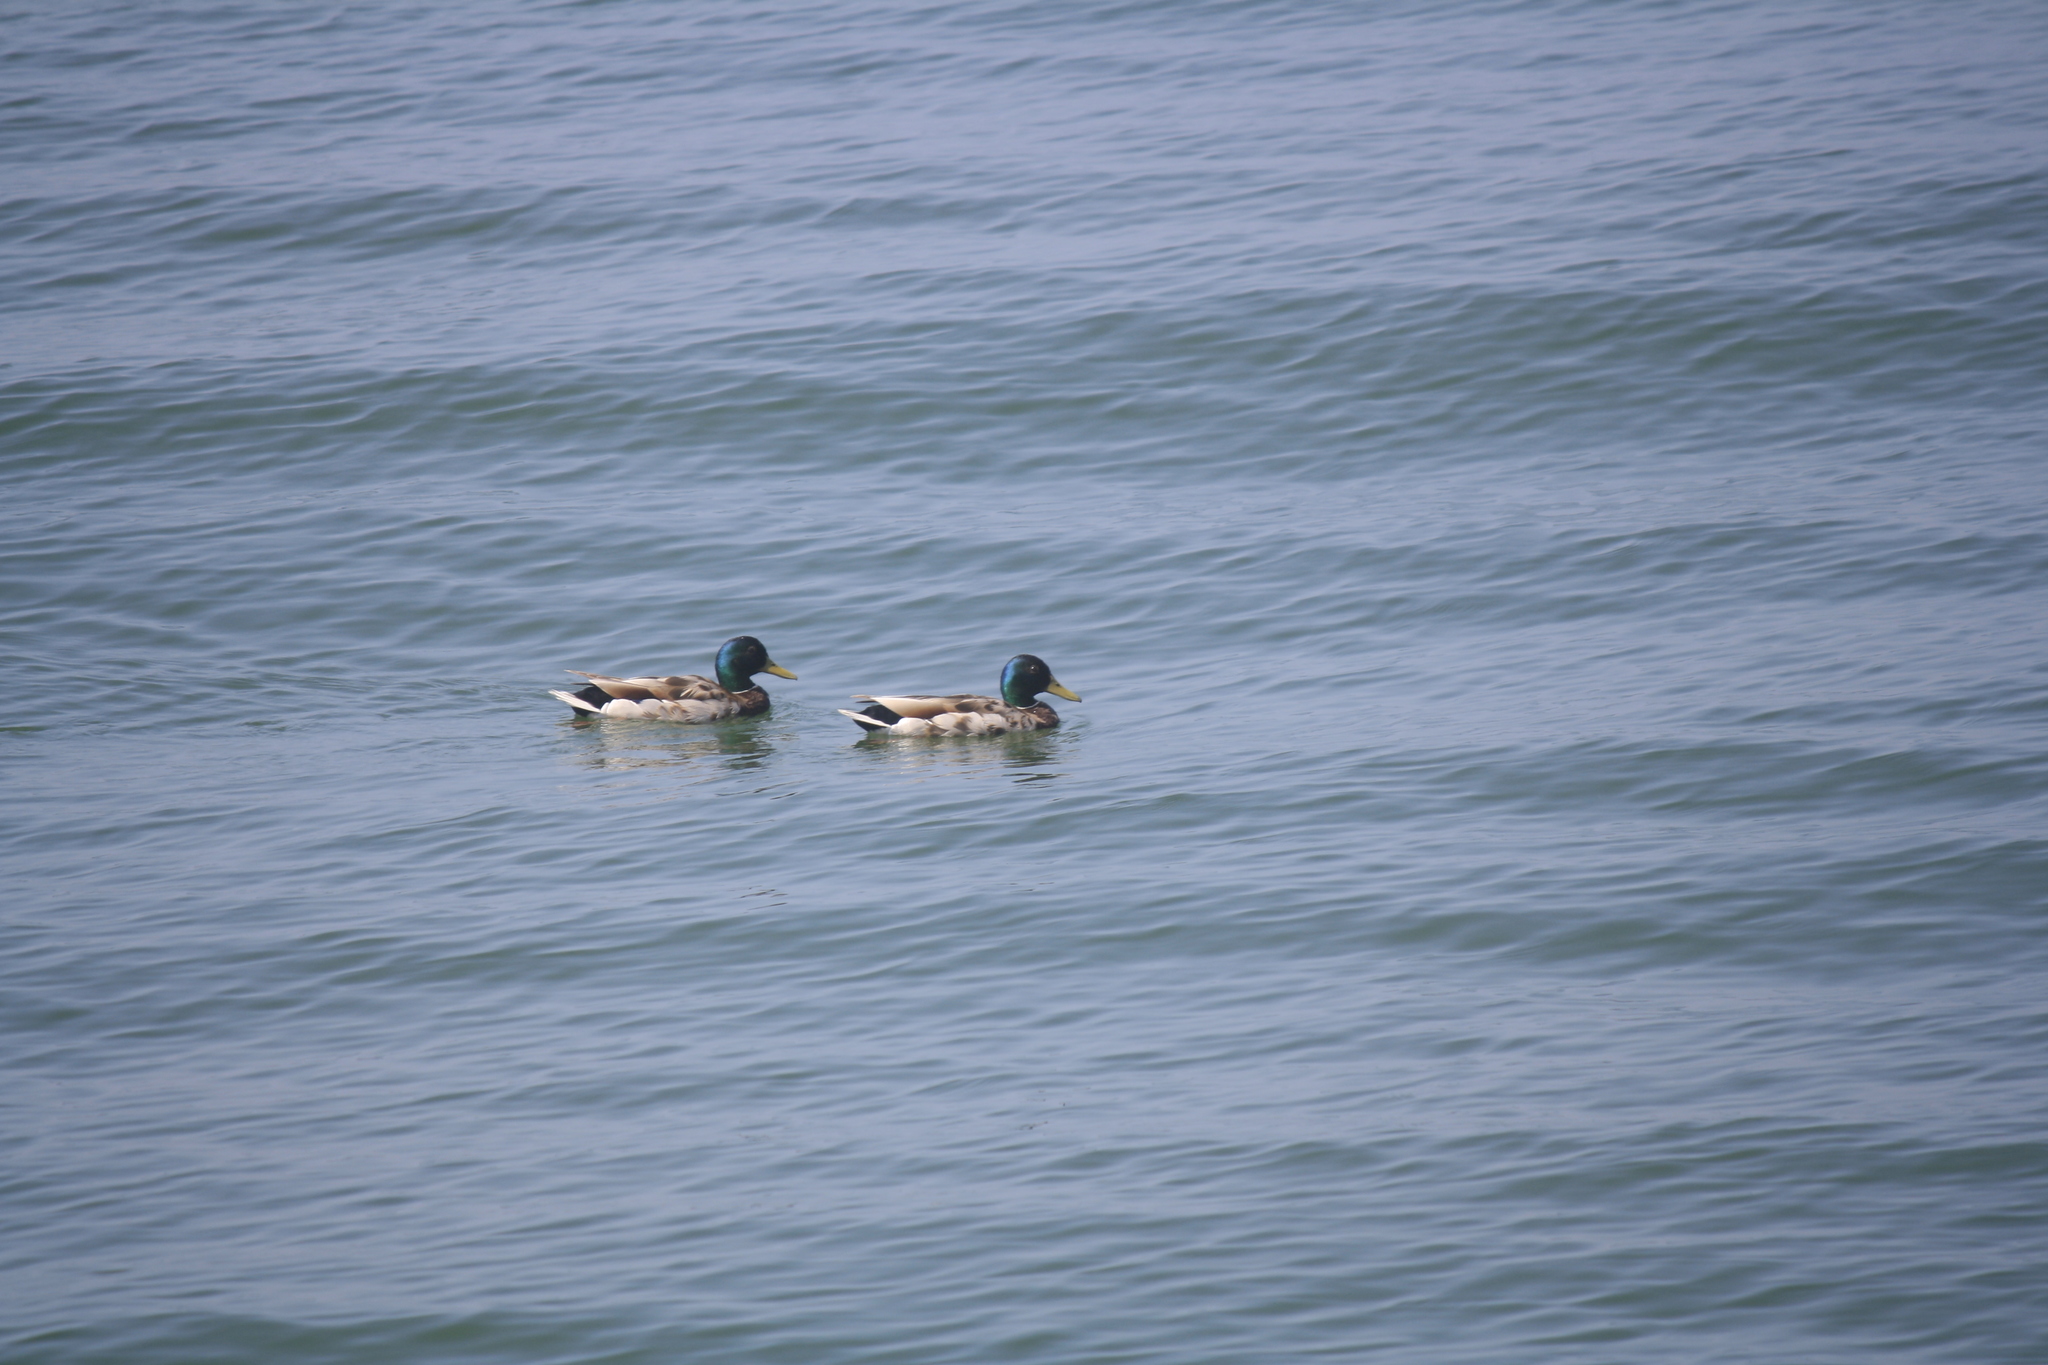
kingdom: Animalia
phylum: Chordata
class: Aves
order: Anseriformes
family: Anatidae
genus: Anas
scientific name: Anas platyrhynchos
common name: Mallard
